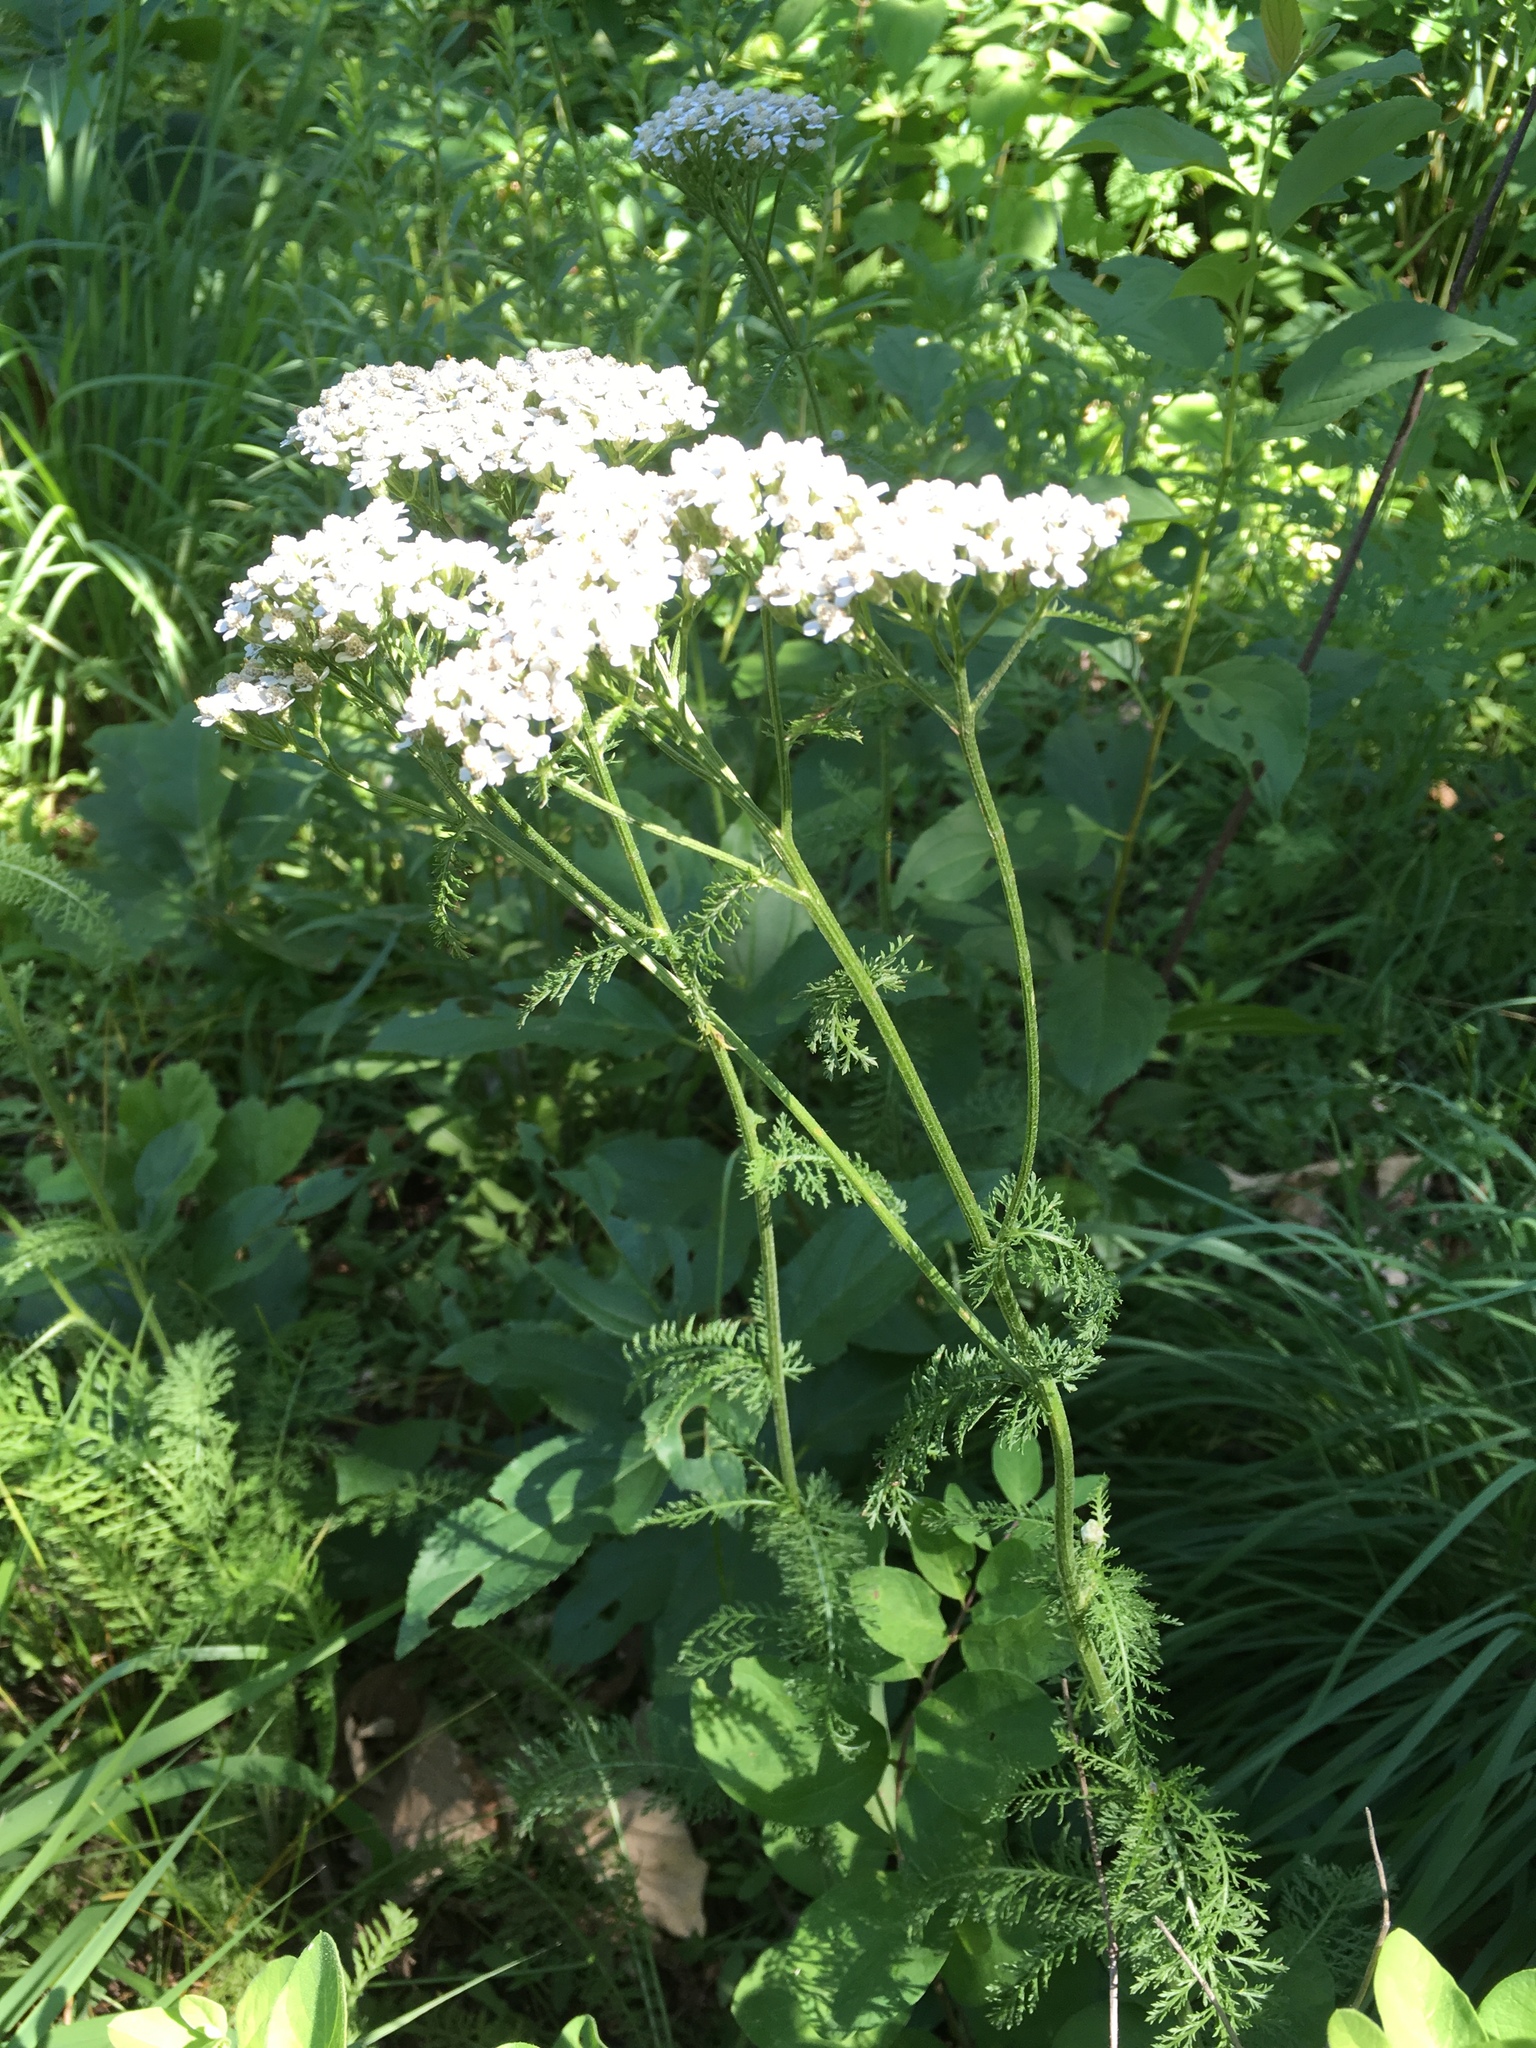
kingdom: Plantae
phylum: Tracheophyta
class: Magnoliopsida
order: Asterales
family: Asteraceae
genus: Achillea
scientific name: Achillea millefolium
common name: Yarrow
